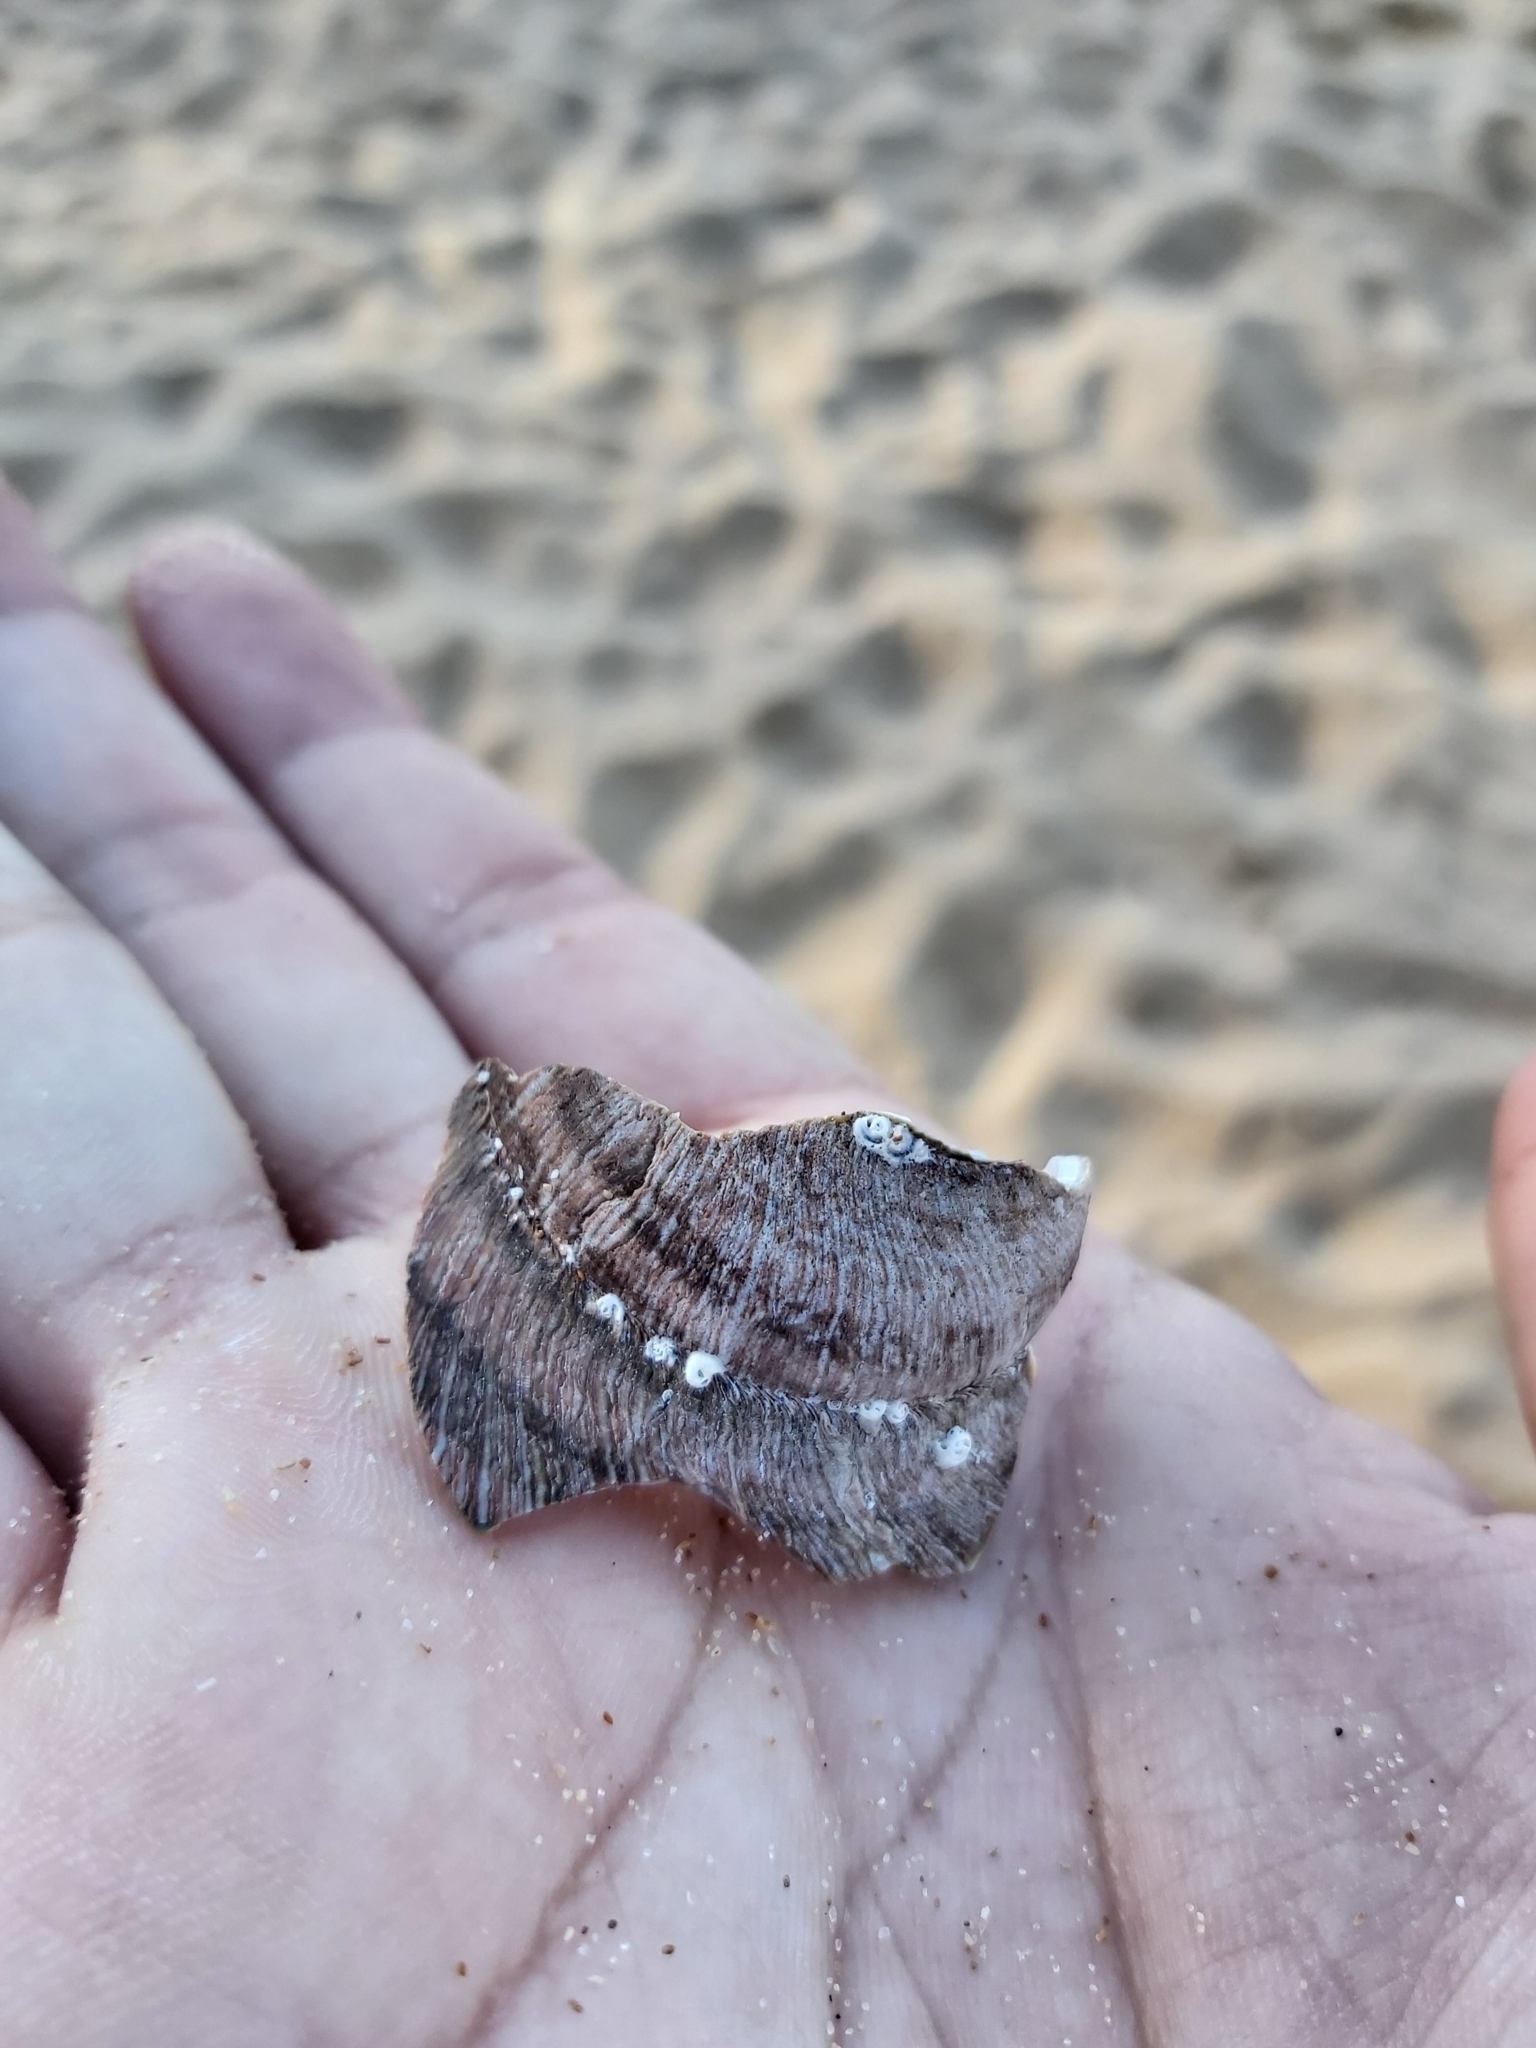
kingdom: Animalia
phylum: Mollusca
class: Gastropoda
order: Trochida
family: Turbinidae
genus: Turbo
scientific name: Turbo militaris
